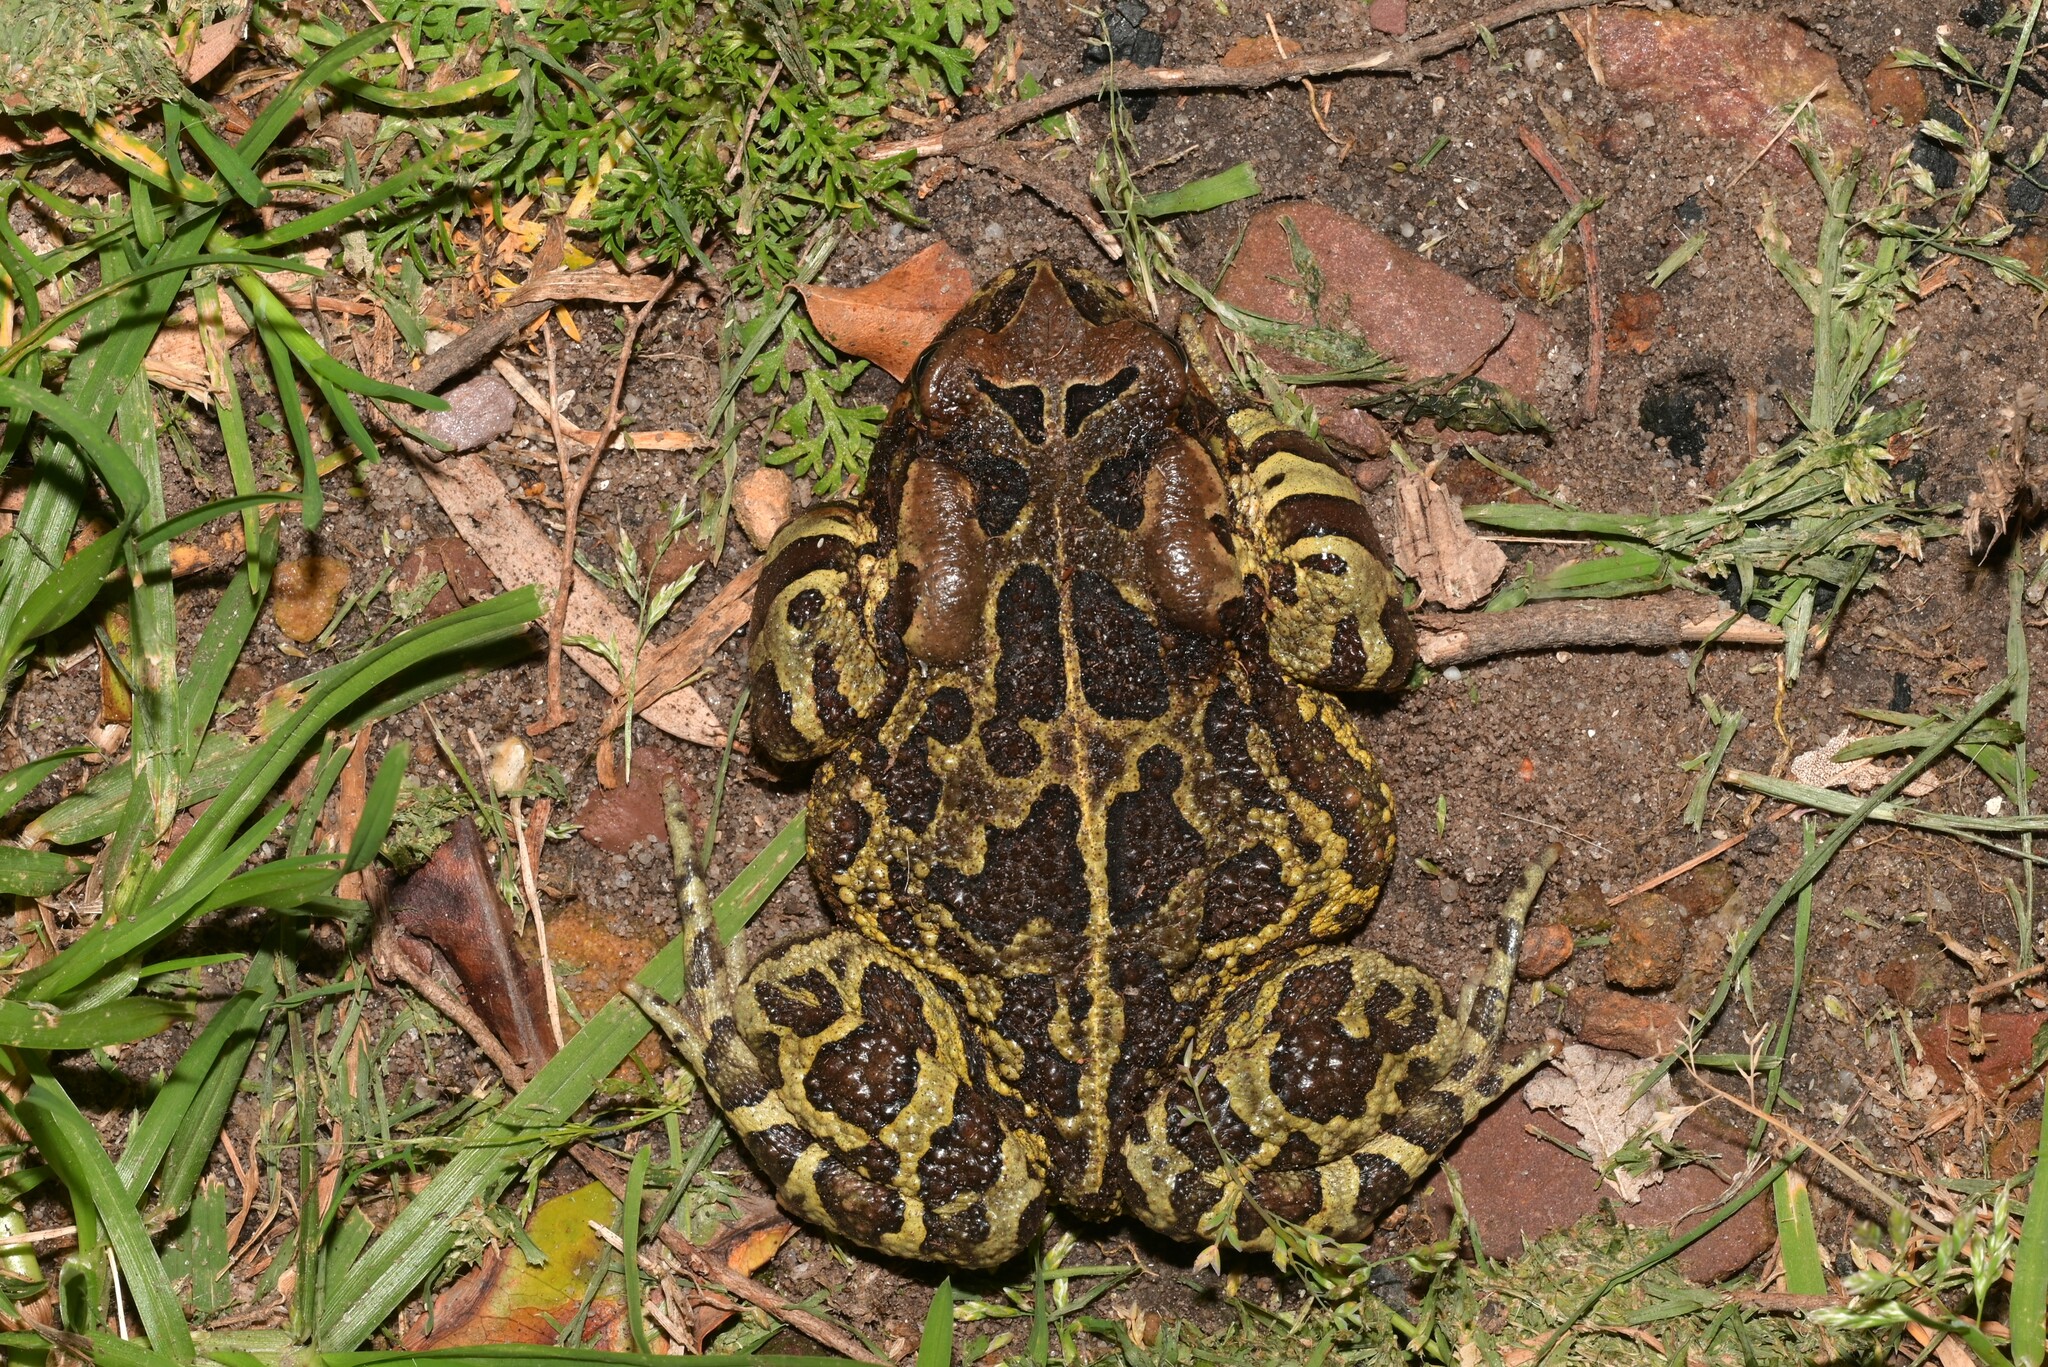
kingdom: Animalia
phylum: Chordata
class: Amphibia
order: Anura
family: Bufonidae
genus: Sclerophrys
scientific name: Sclerophrys pantherina
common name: Panther toad
